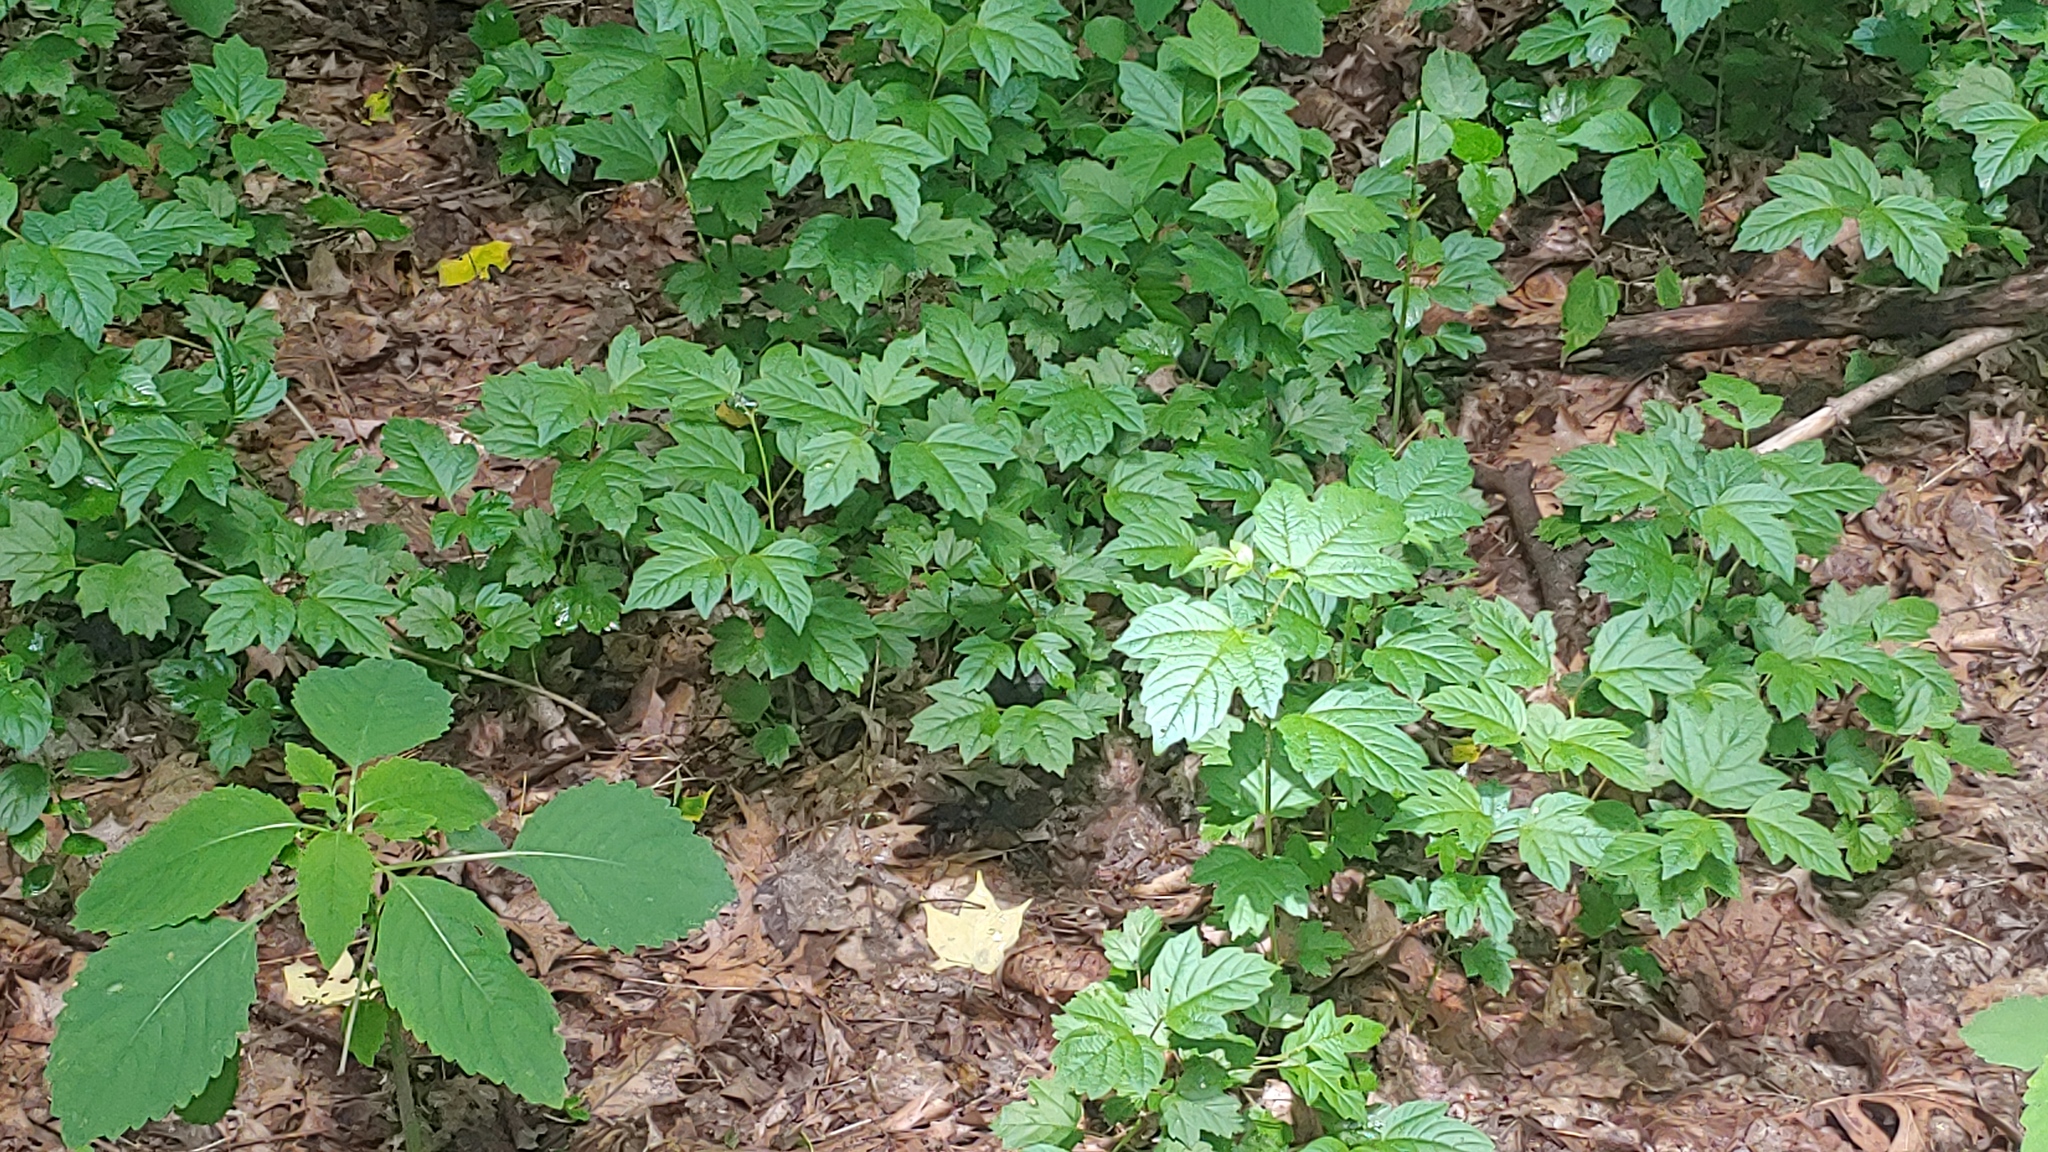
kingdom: Plantae
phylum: Tracheophyta
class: Magnoliopsida
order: Dipsacales
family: Viburnaceae
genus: Viburnum
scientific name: Viburnum opulus
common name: Guelder-rose
